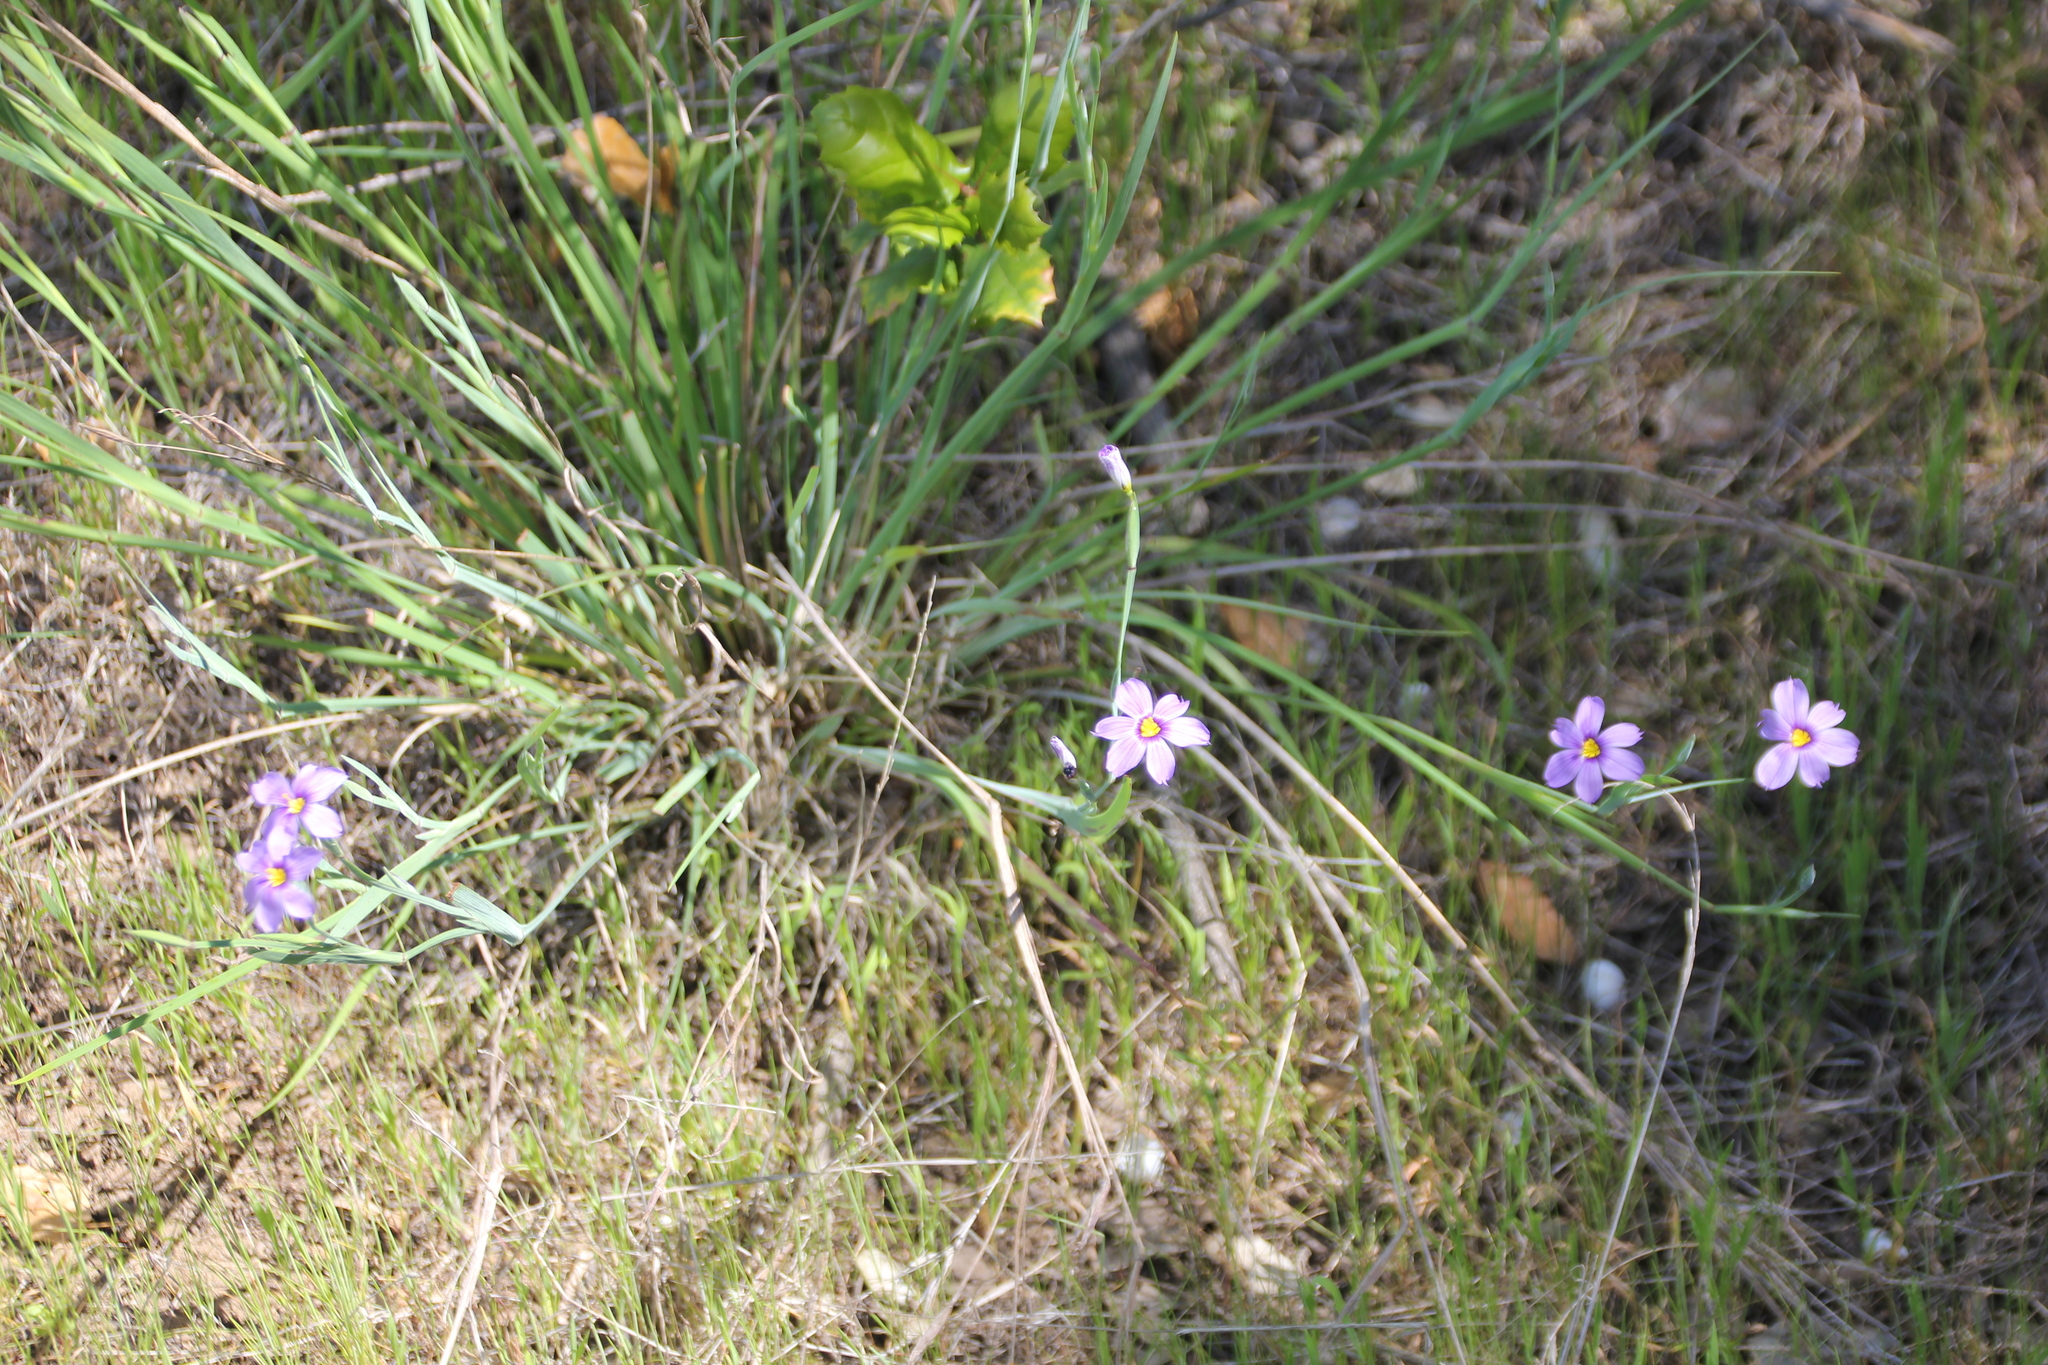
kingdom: Plantae
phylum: Tracheophyta
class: Liliopsida
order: Asparagales
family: Iridaceae
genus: Sisyrinchium
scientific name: Sisyrinchium bellum
